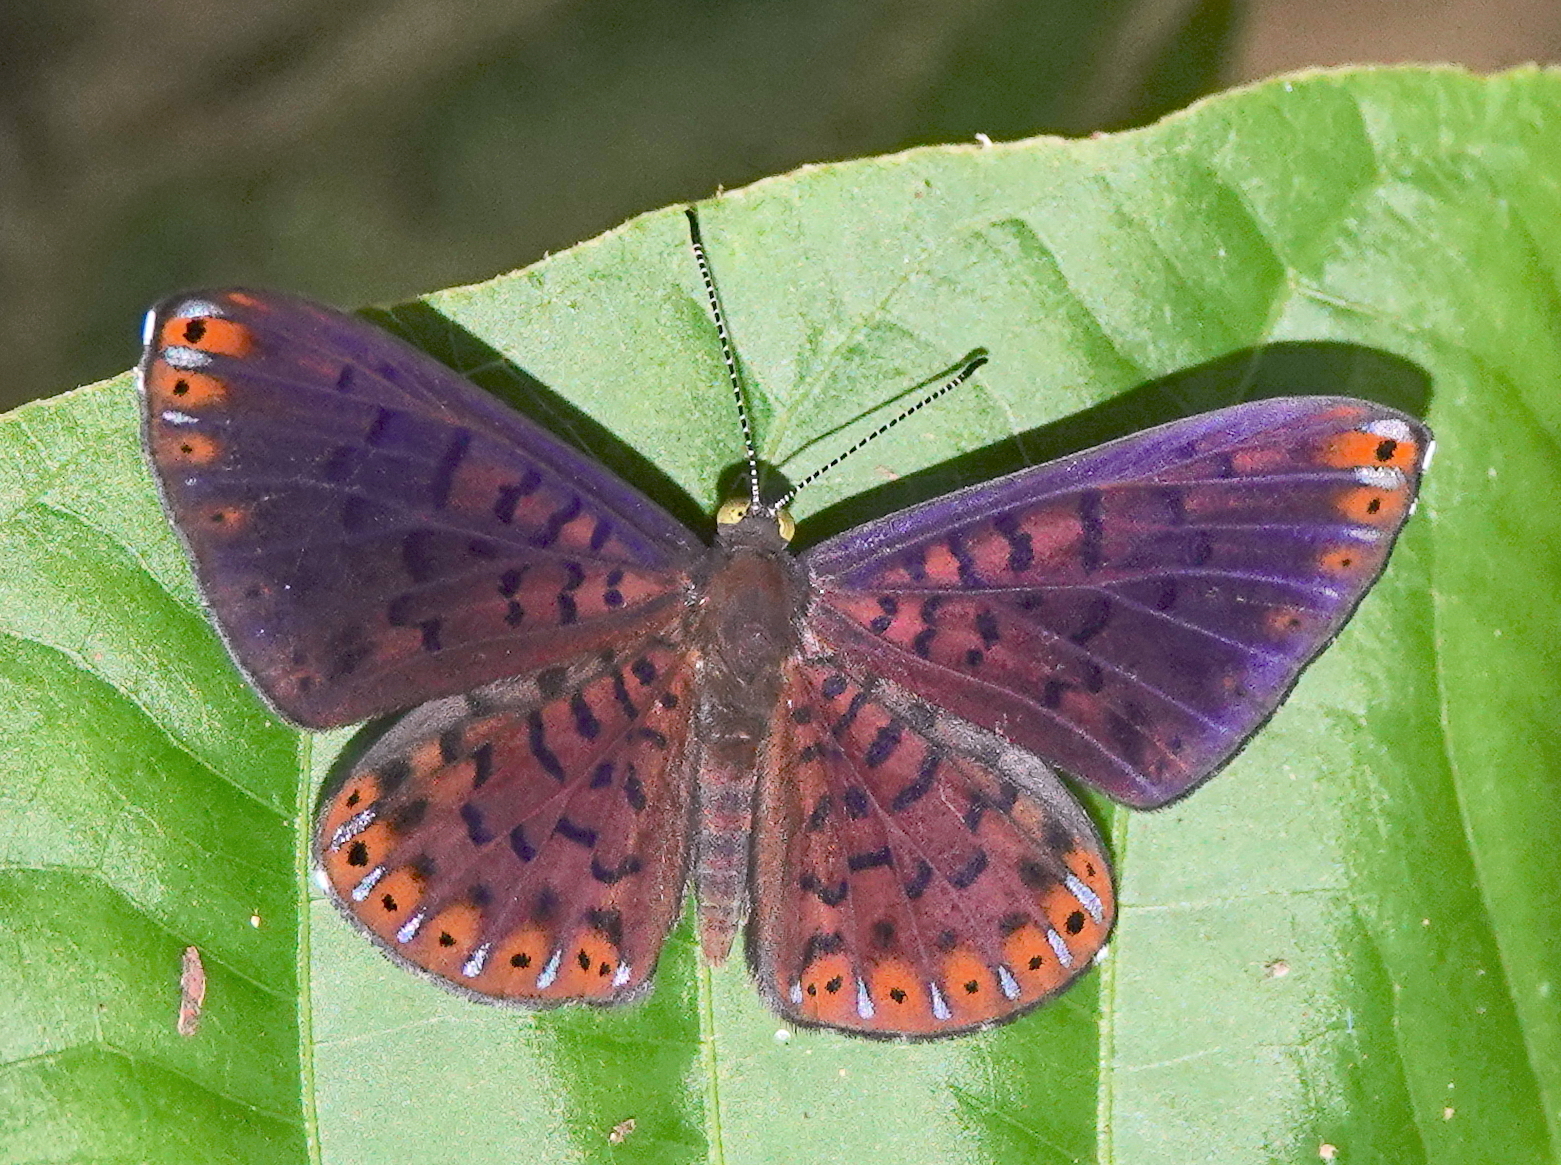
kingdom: Animalia
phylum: Arthropoda
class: Insecta
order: Lepidoptera
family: Riodinidae
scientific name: Riodinidae
